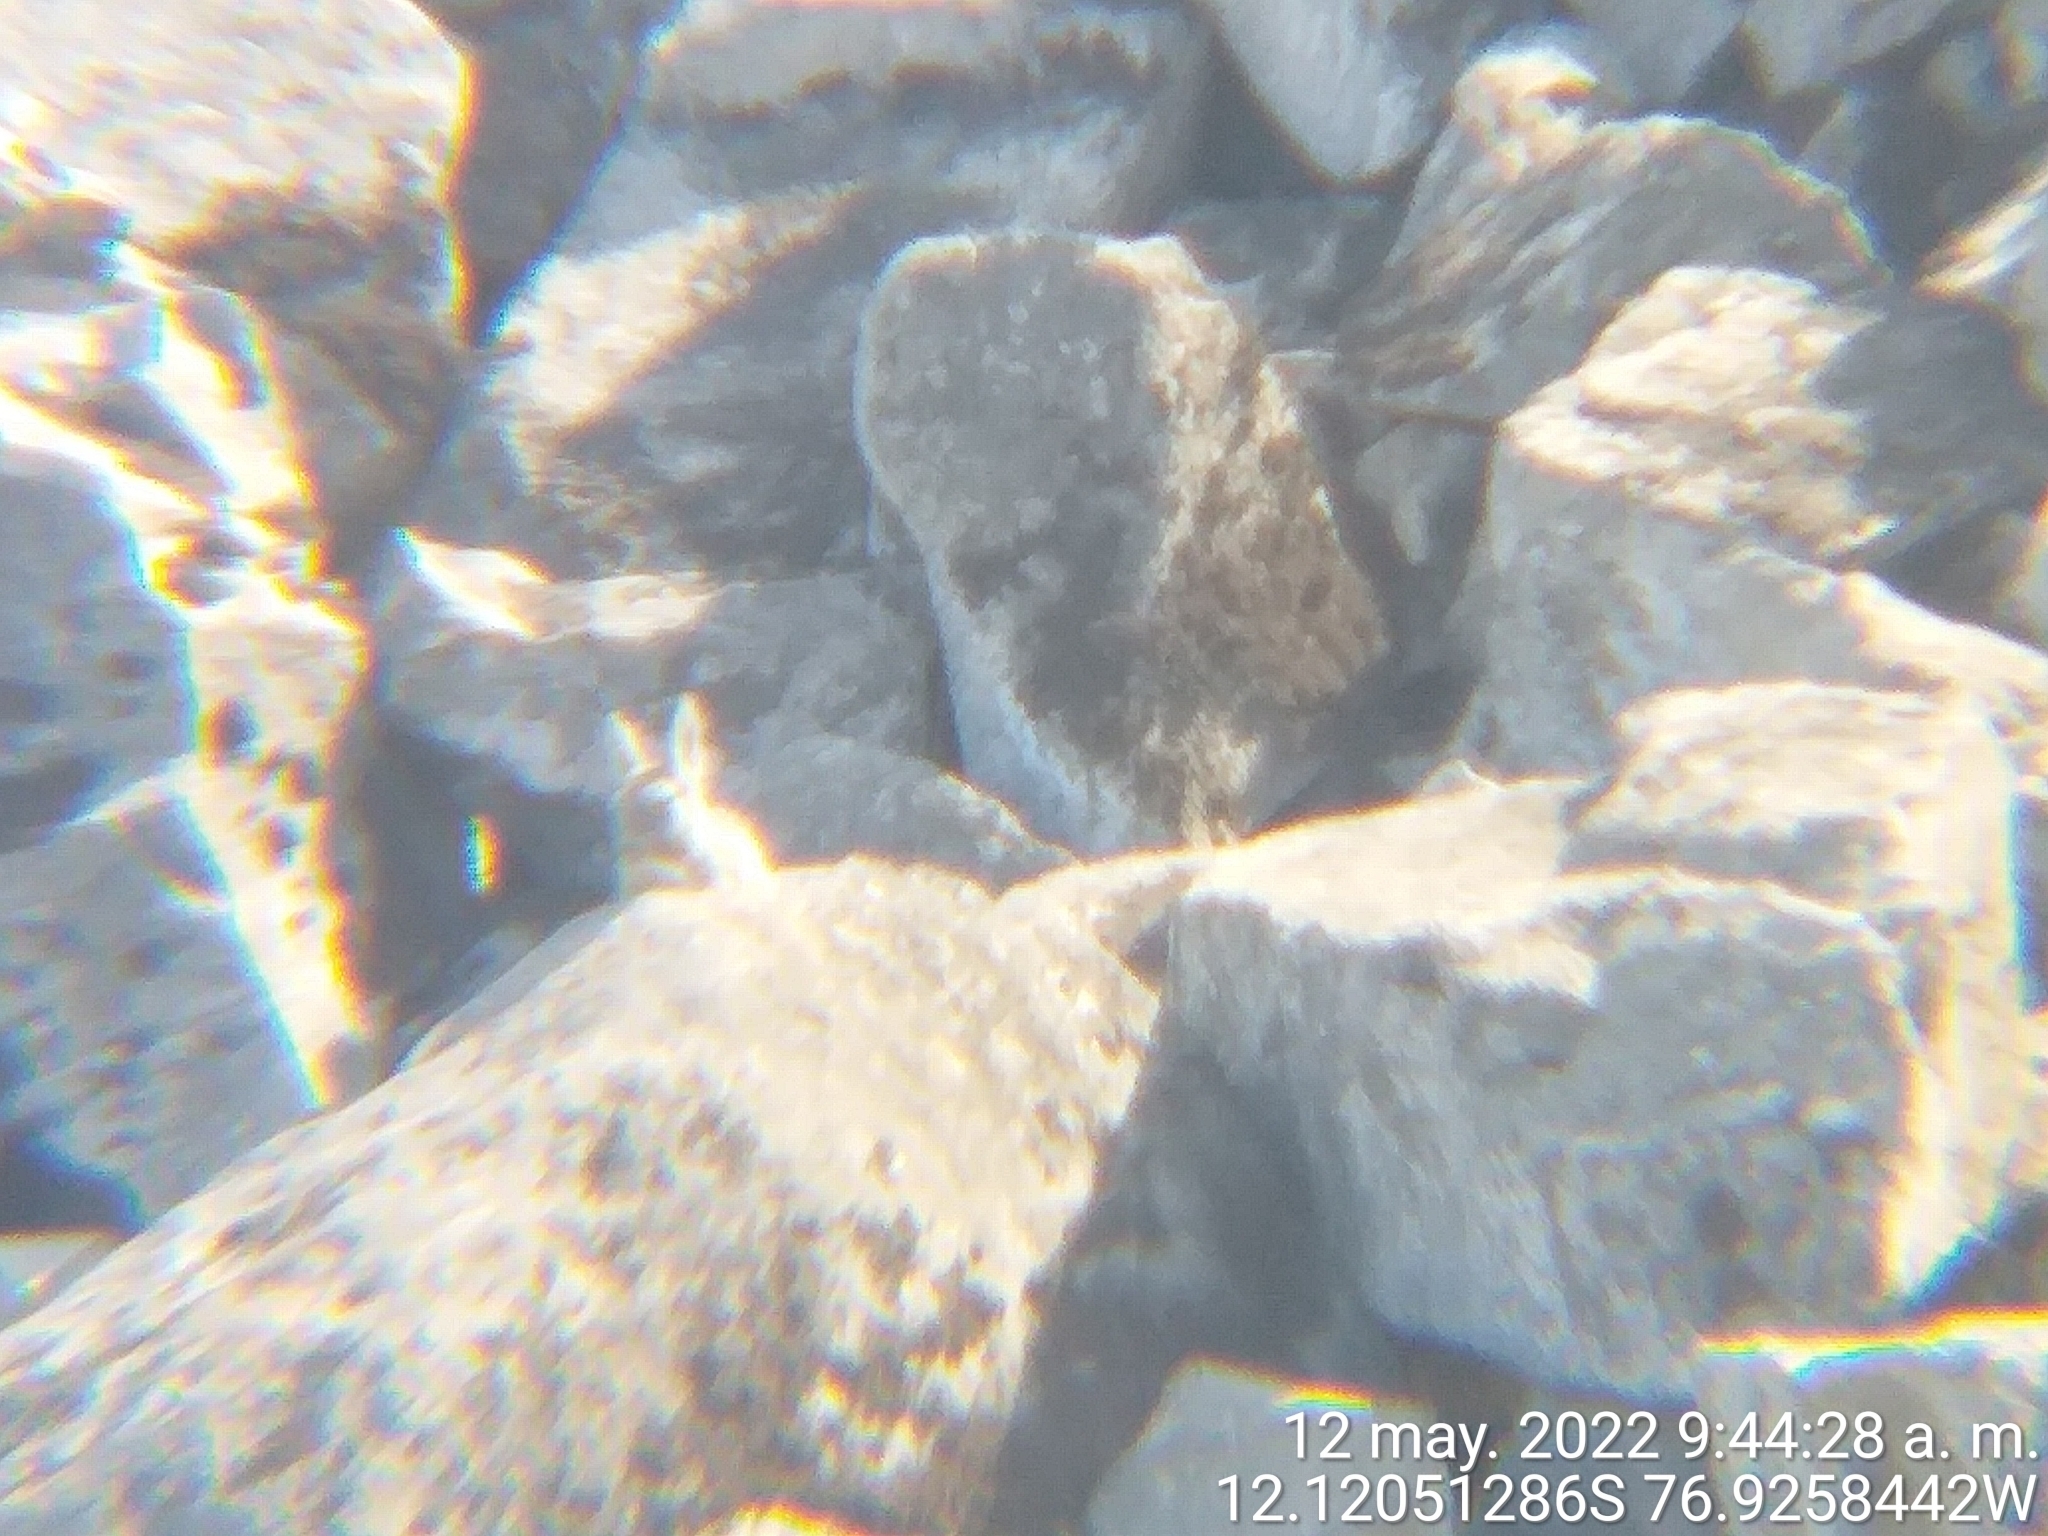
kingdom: Animalia
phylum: Chordata
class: Mammalia
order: Rodentia
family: Chinchillidae
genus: Lagidium
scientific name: Lagidium viscacia
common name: Southern viscacha
